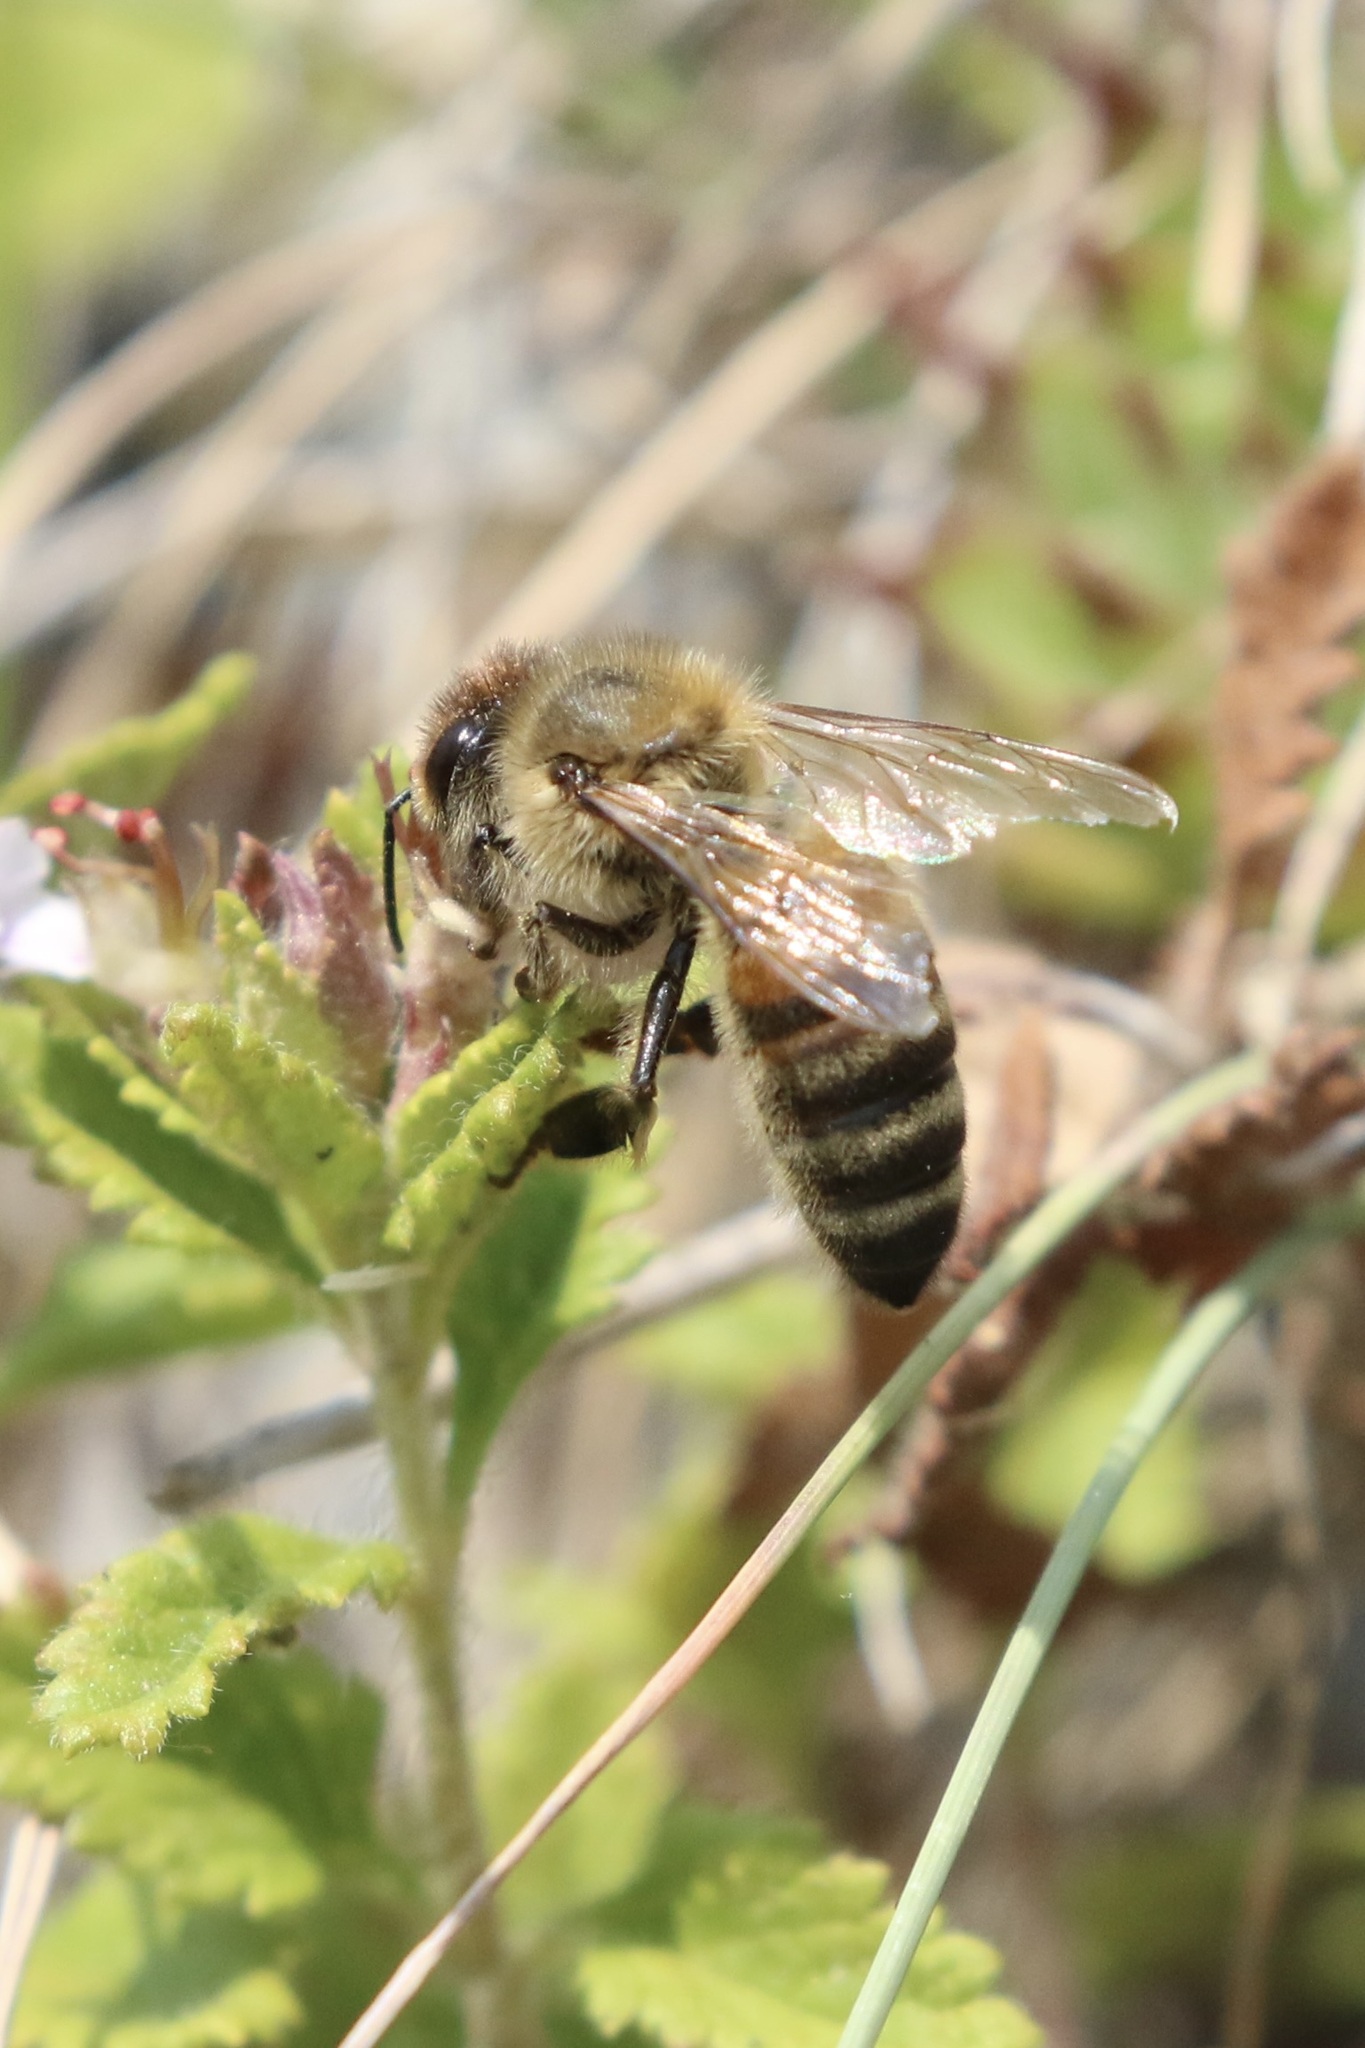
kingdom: Animalia
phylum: Arthropoda
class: Insecta
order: Hymenoptera
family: Apidae
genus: Apis
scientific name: Apis mellifera
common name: Honey bee
